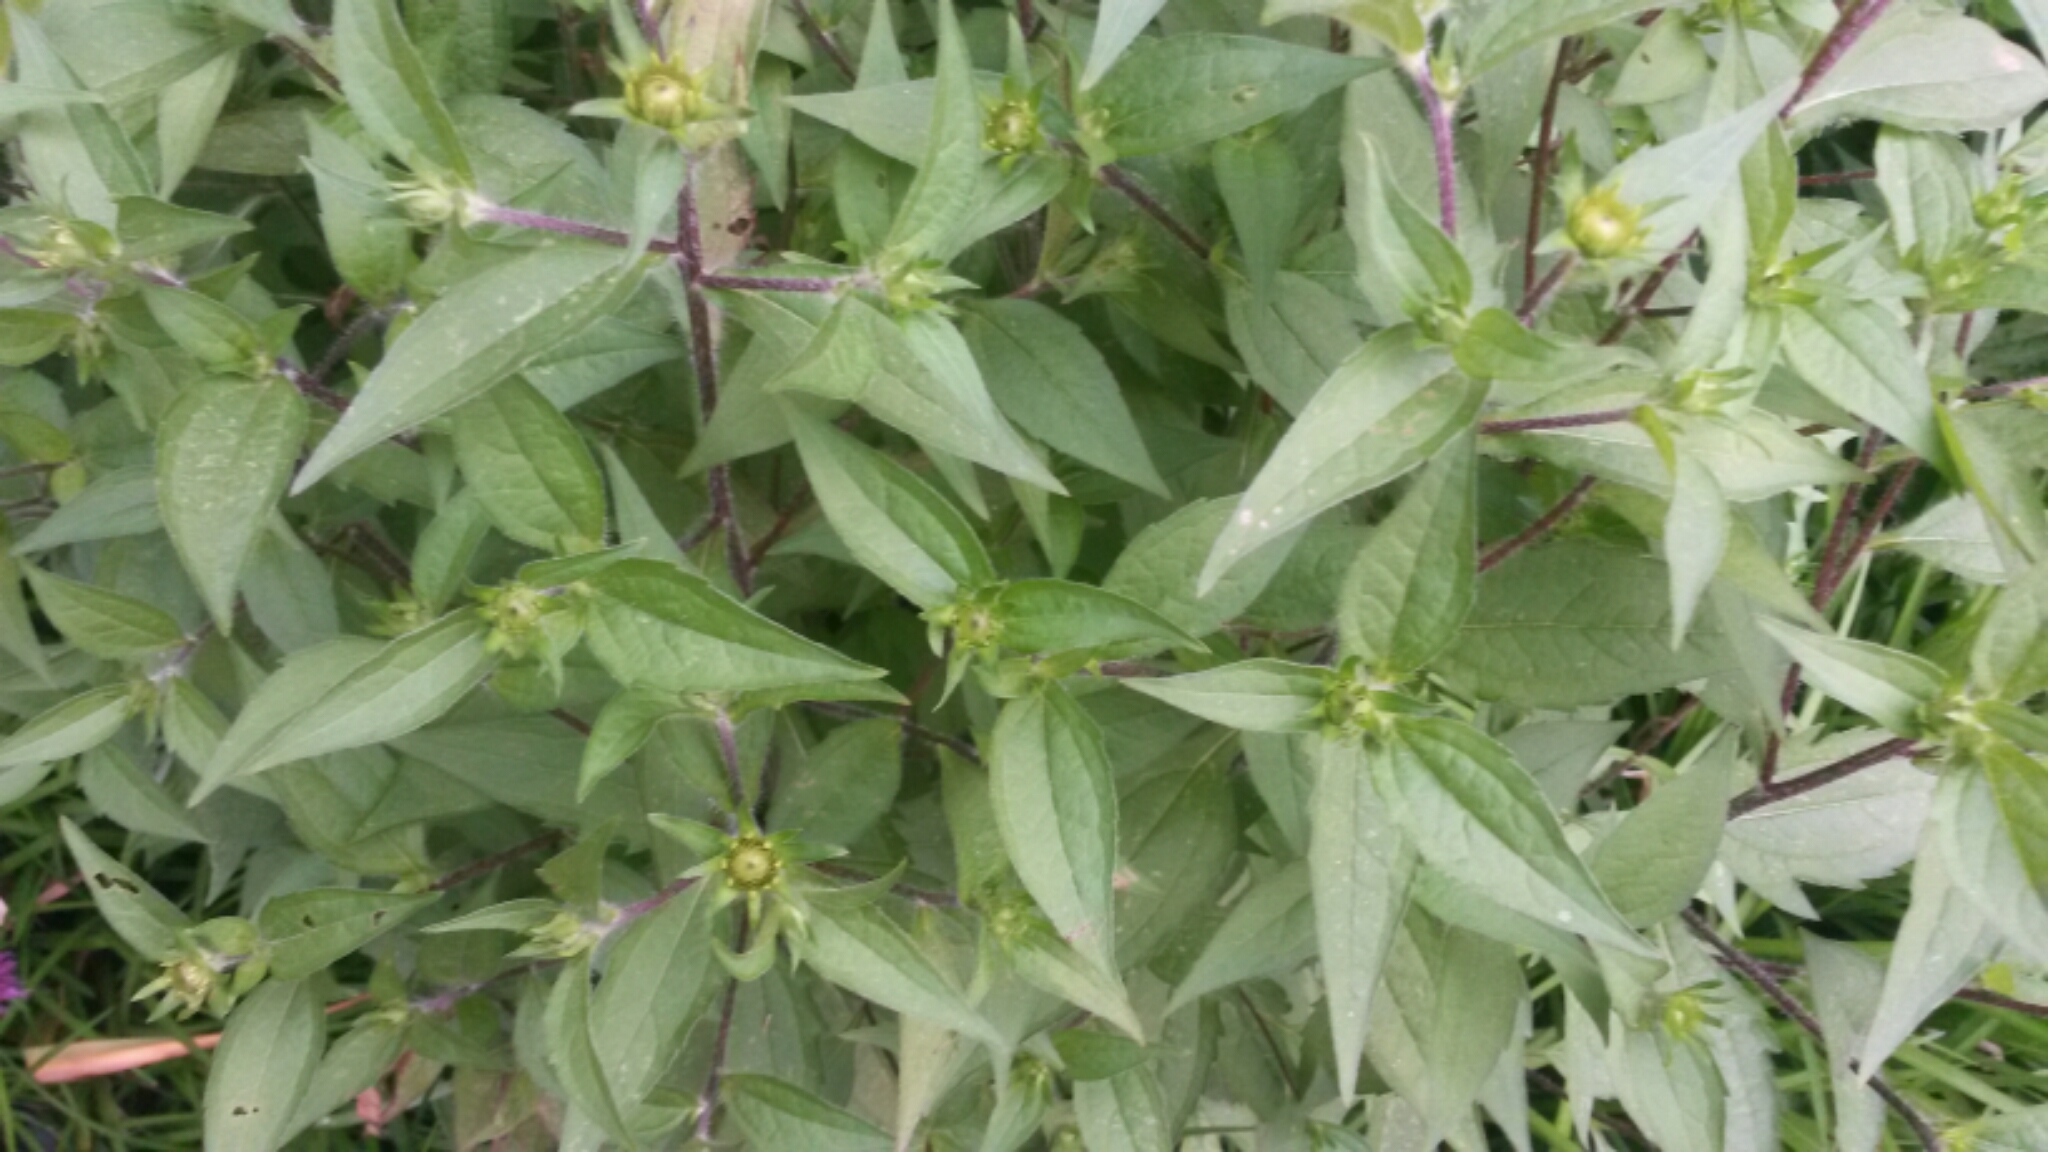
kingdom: Plantae
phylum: Tracheophyta
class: Magnoliopsida
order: Asterales
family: Asteraceae
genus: Rudbeckia
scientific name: Rudbeckia triloba
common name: Thin-leaved coneflower
